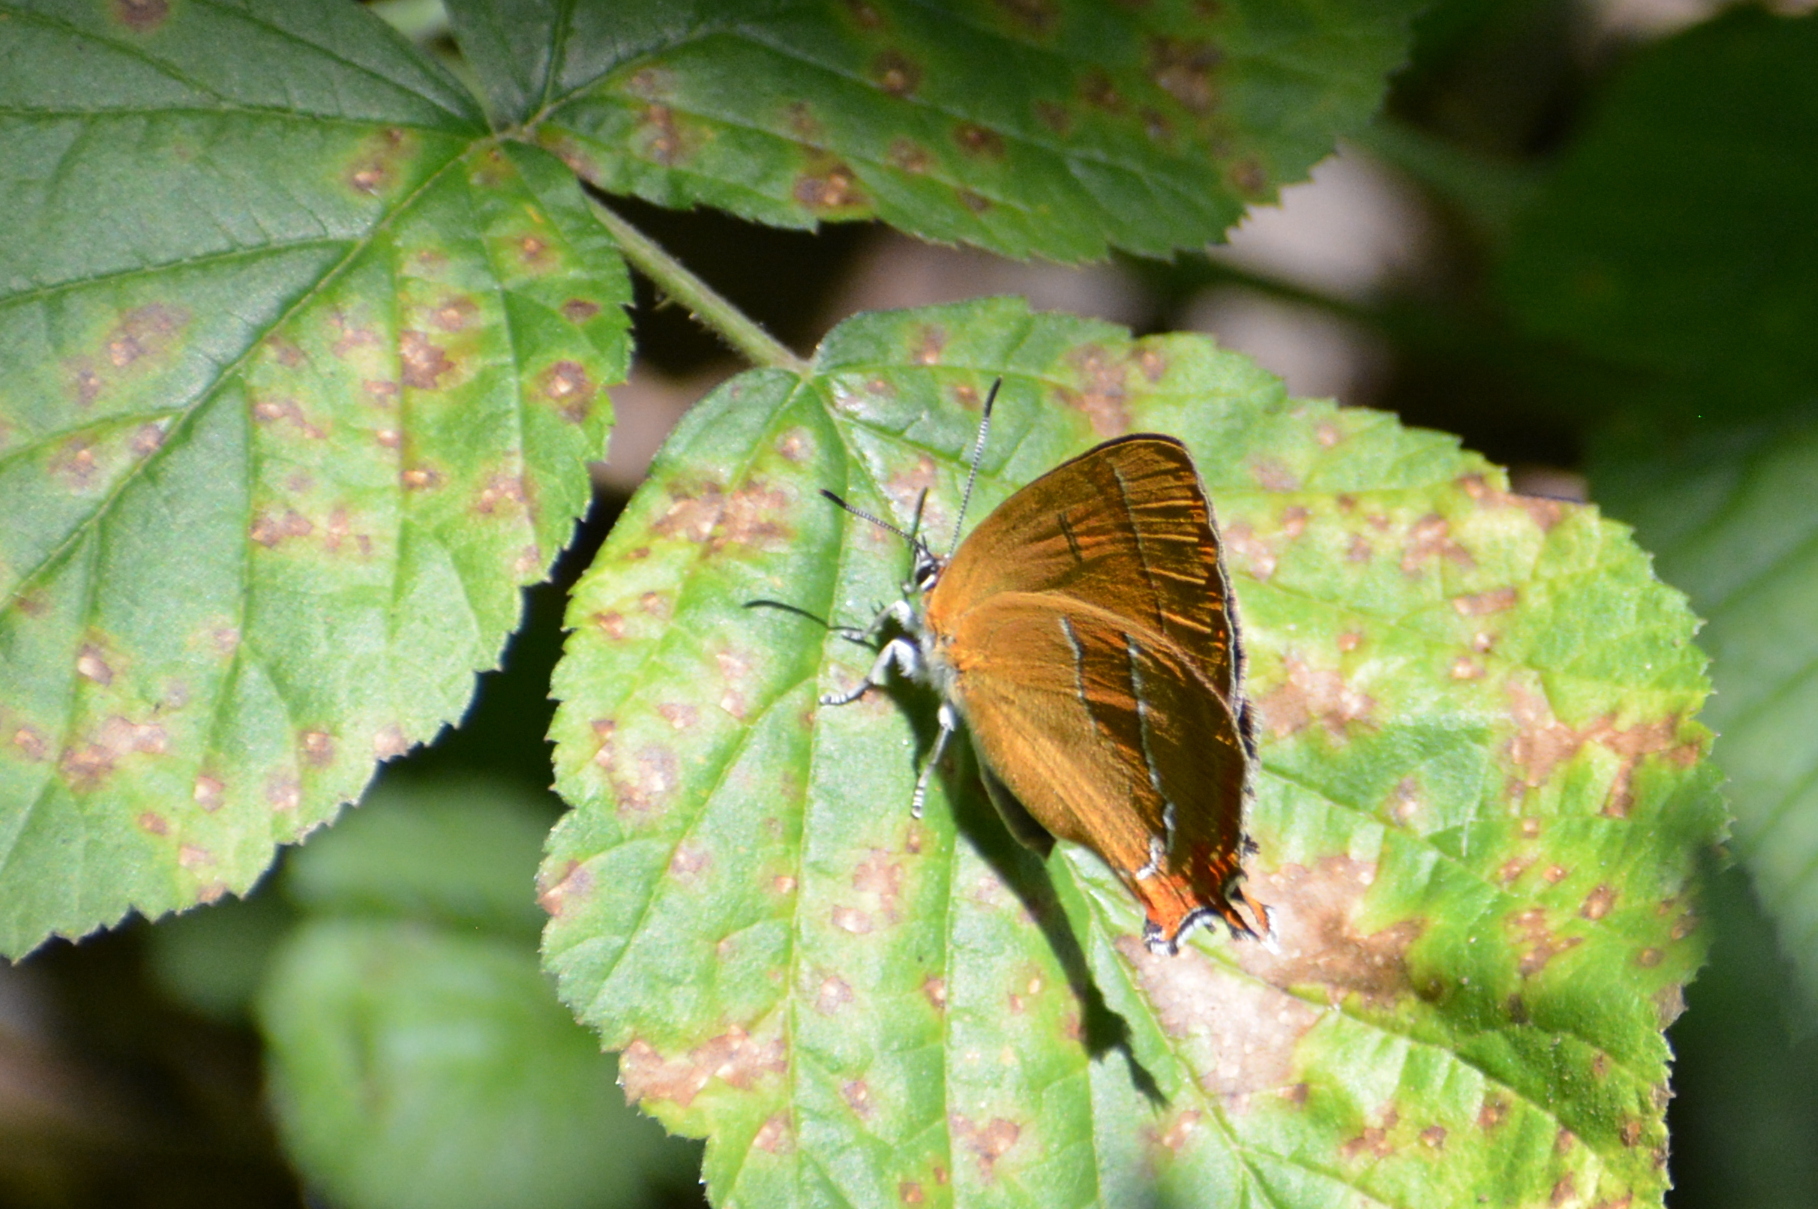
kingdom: Animalia
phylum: Arthropoda
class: Insecta
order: Lepidoptera
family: Lycaenidae
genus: Thecla
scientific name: Thecla betulae
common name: Brown hairstreak
